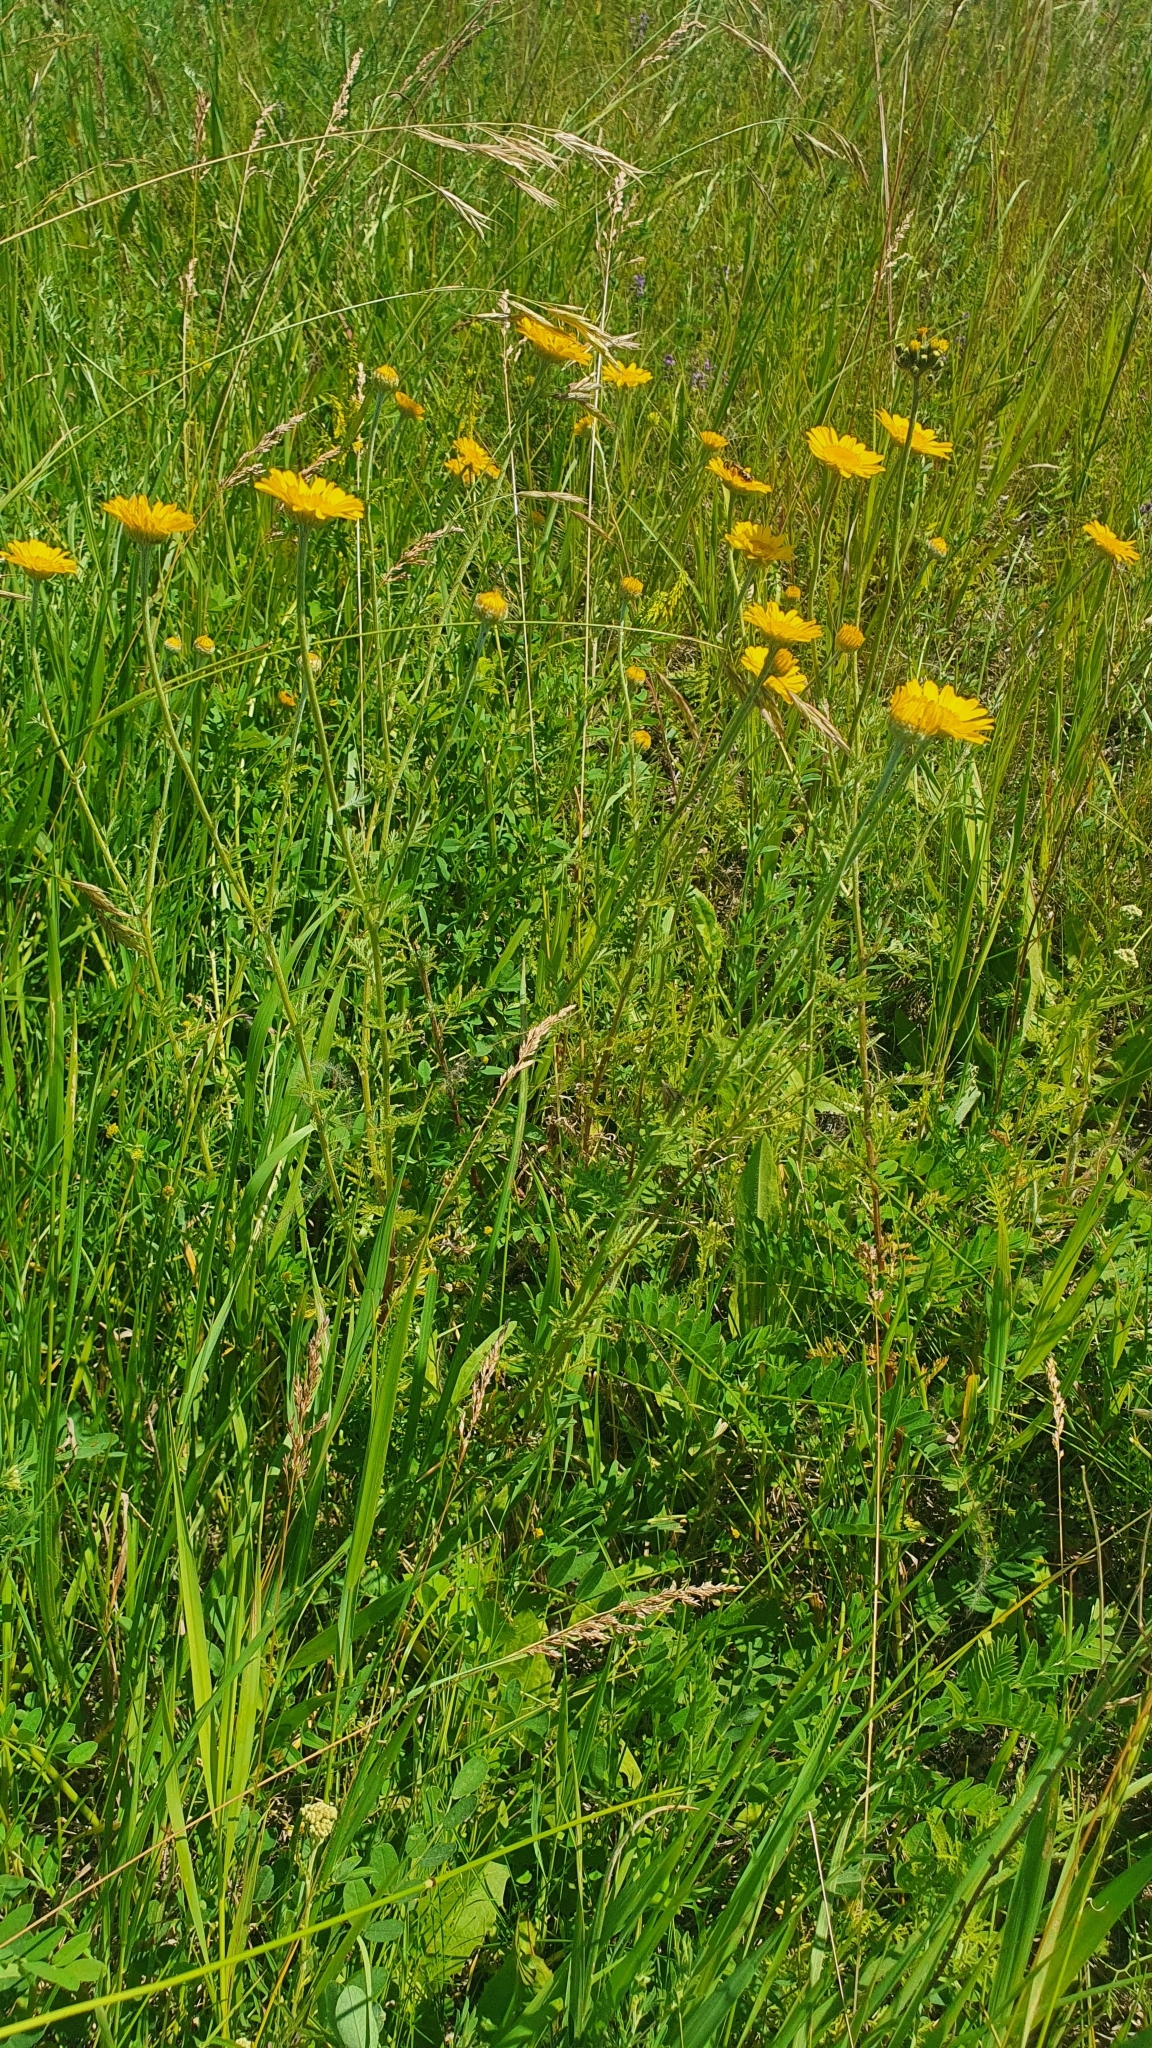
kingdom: Plantae
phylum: Tracheophyta
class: Magnoliopsida
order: Asterales
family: Asteraceae
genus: Cota
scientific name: Cota tinctoria
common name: Golden chamomile
